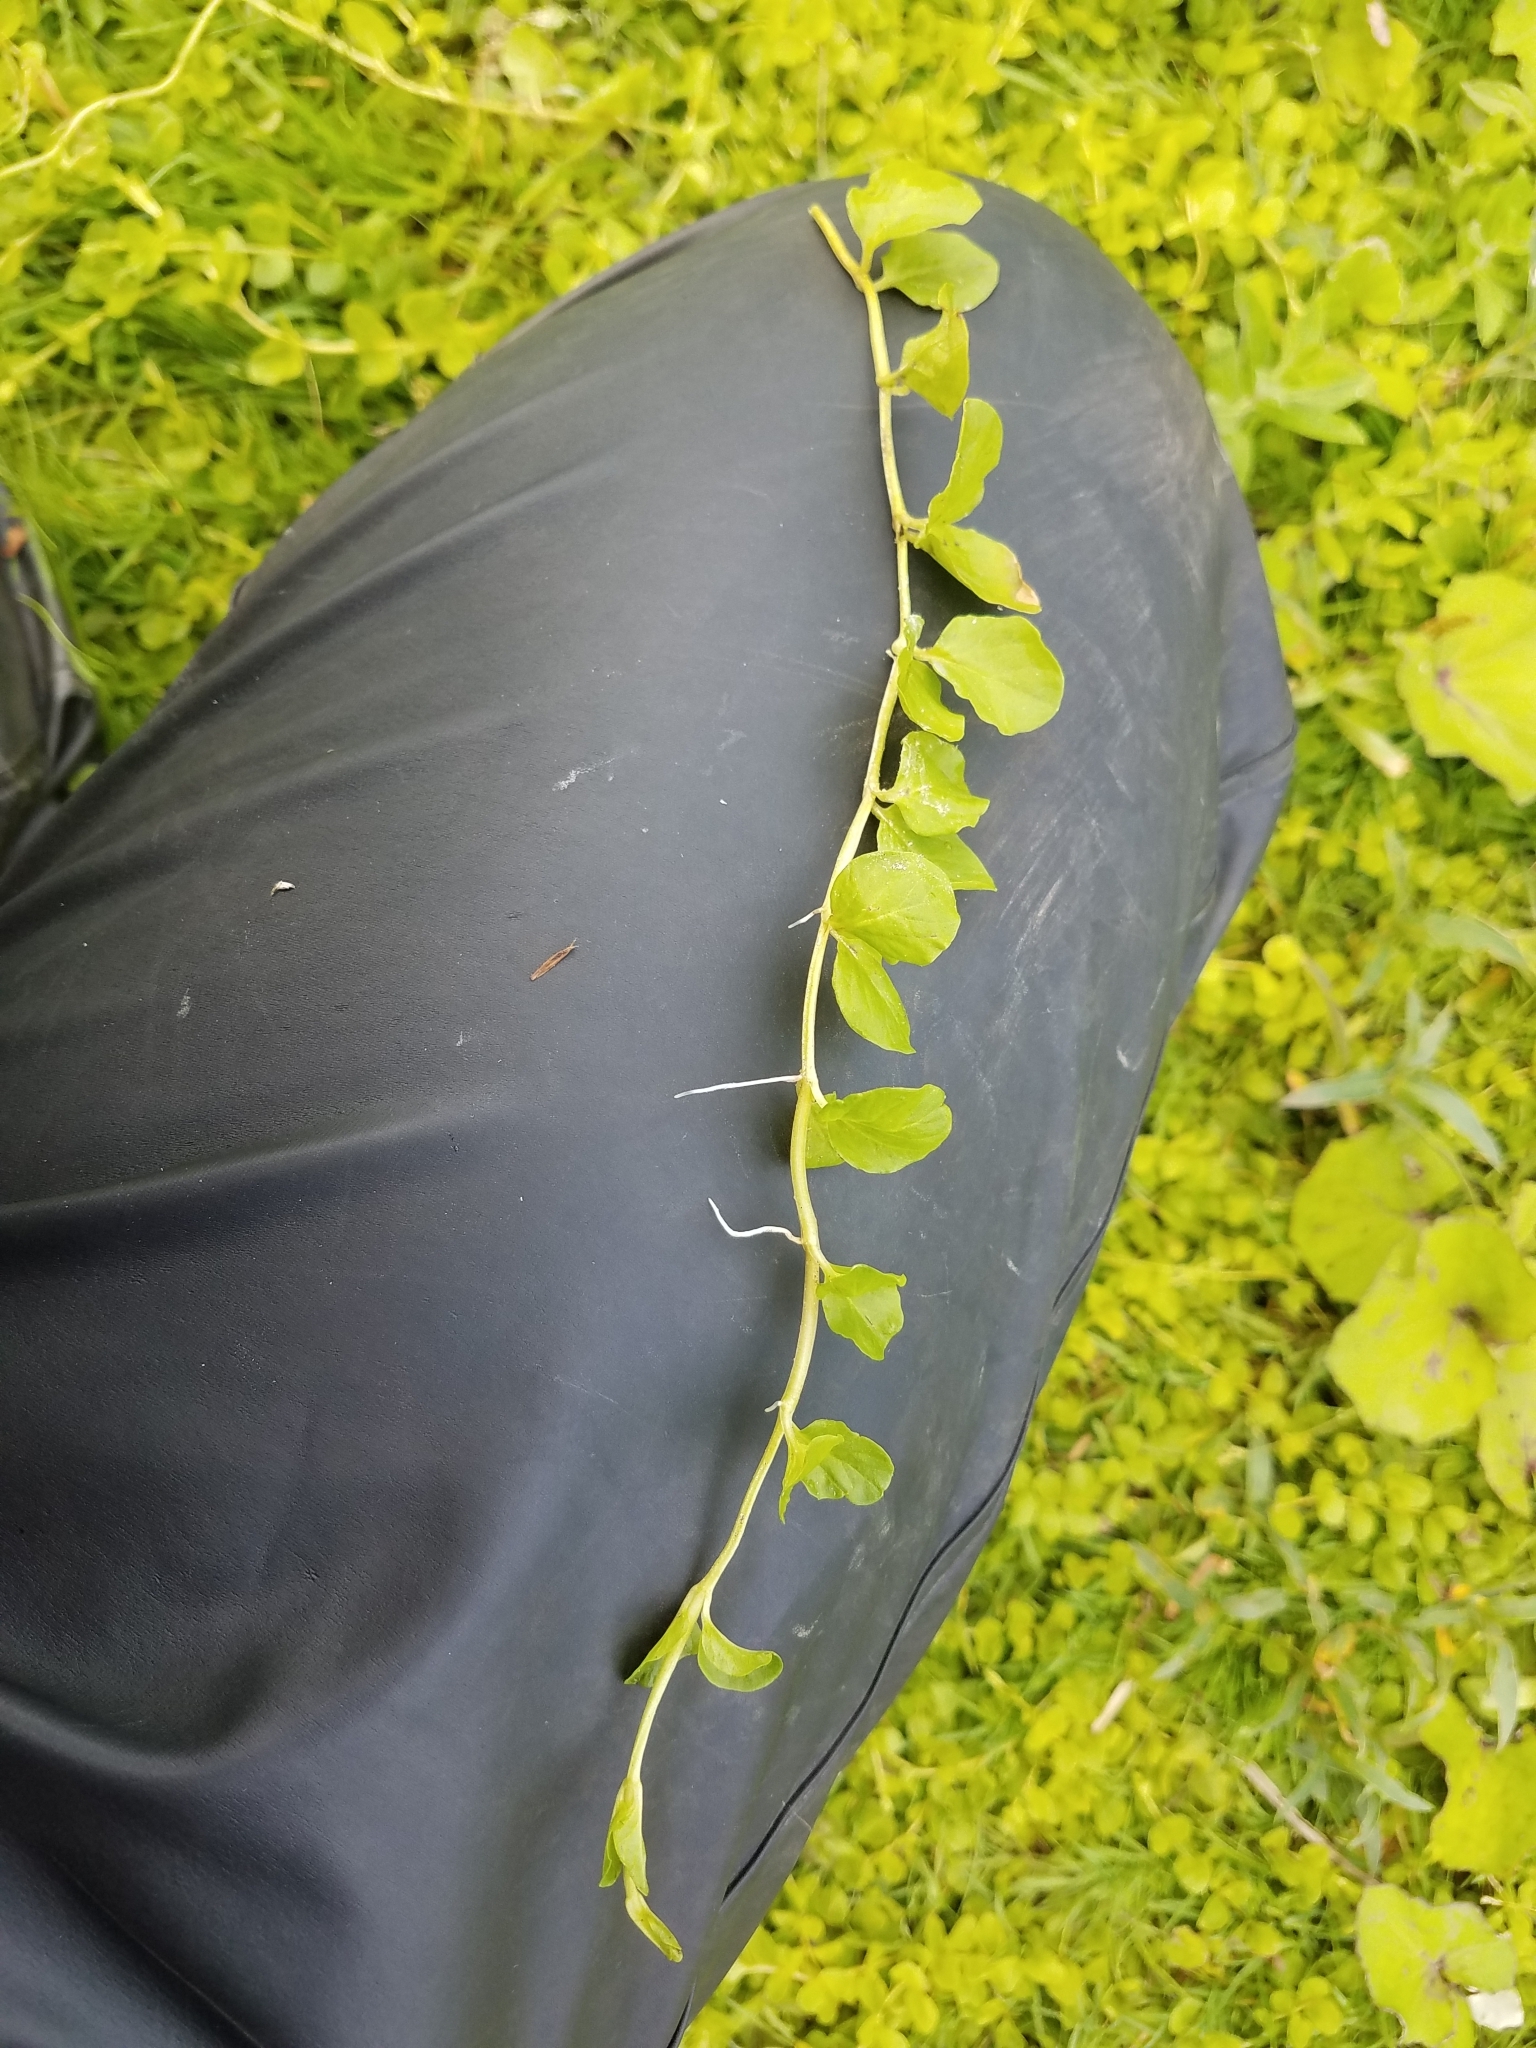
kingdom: Plantae
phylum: Tracheophyta
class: Magnoliopsida
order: Lamiales
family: Plantaginaceae
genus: Veronica
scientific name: Veronica beccabunga
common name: Brooklime
